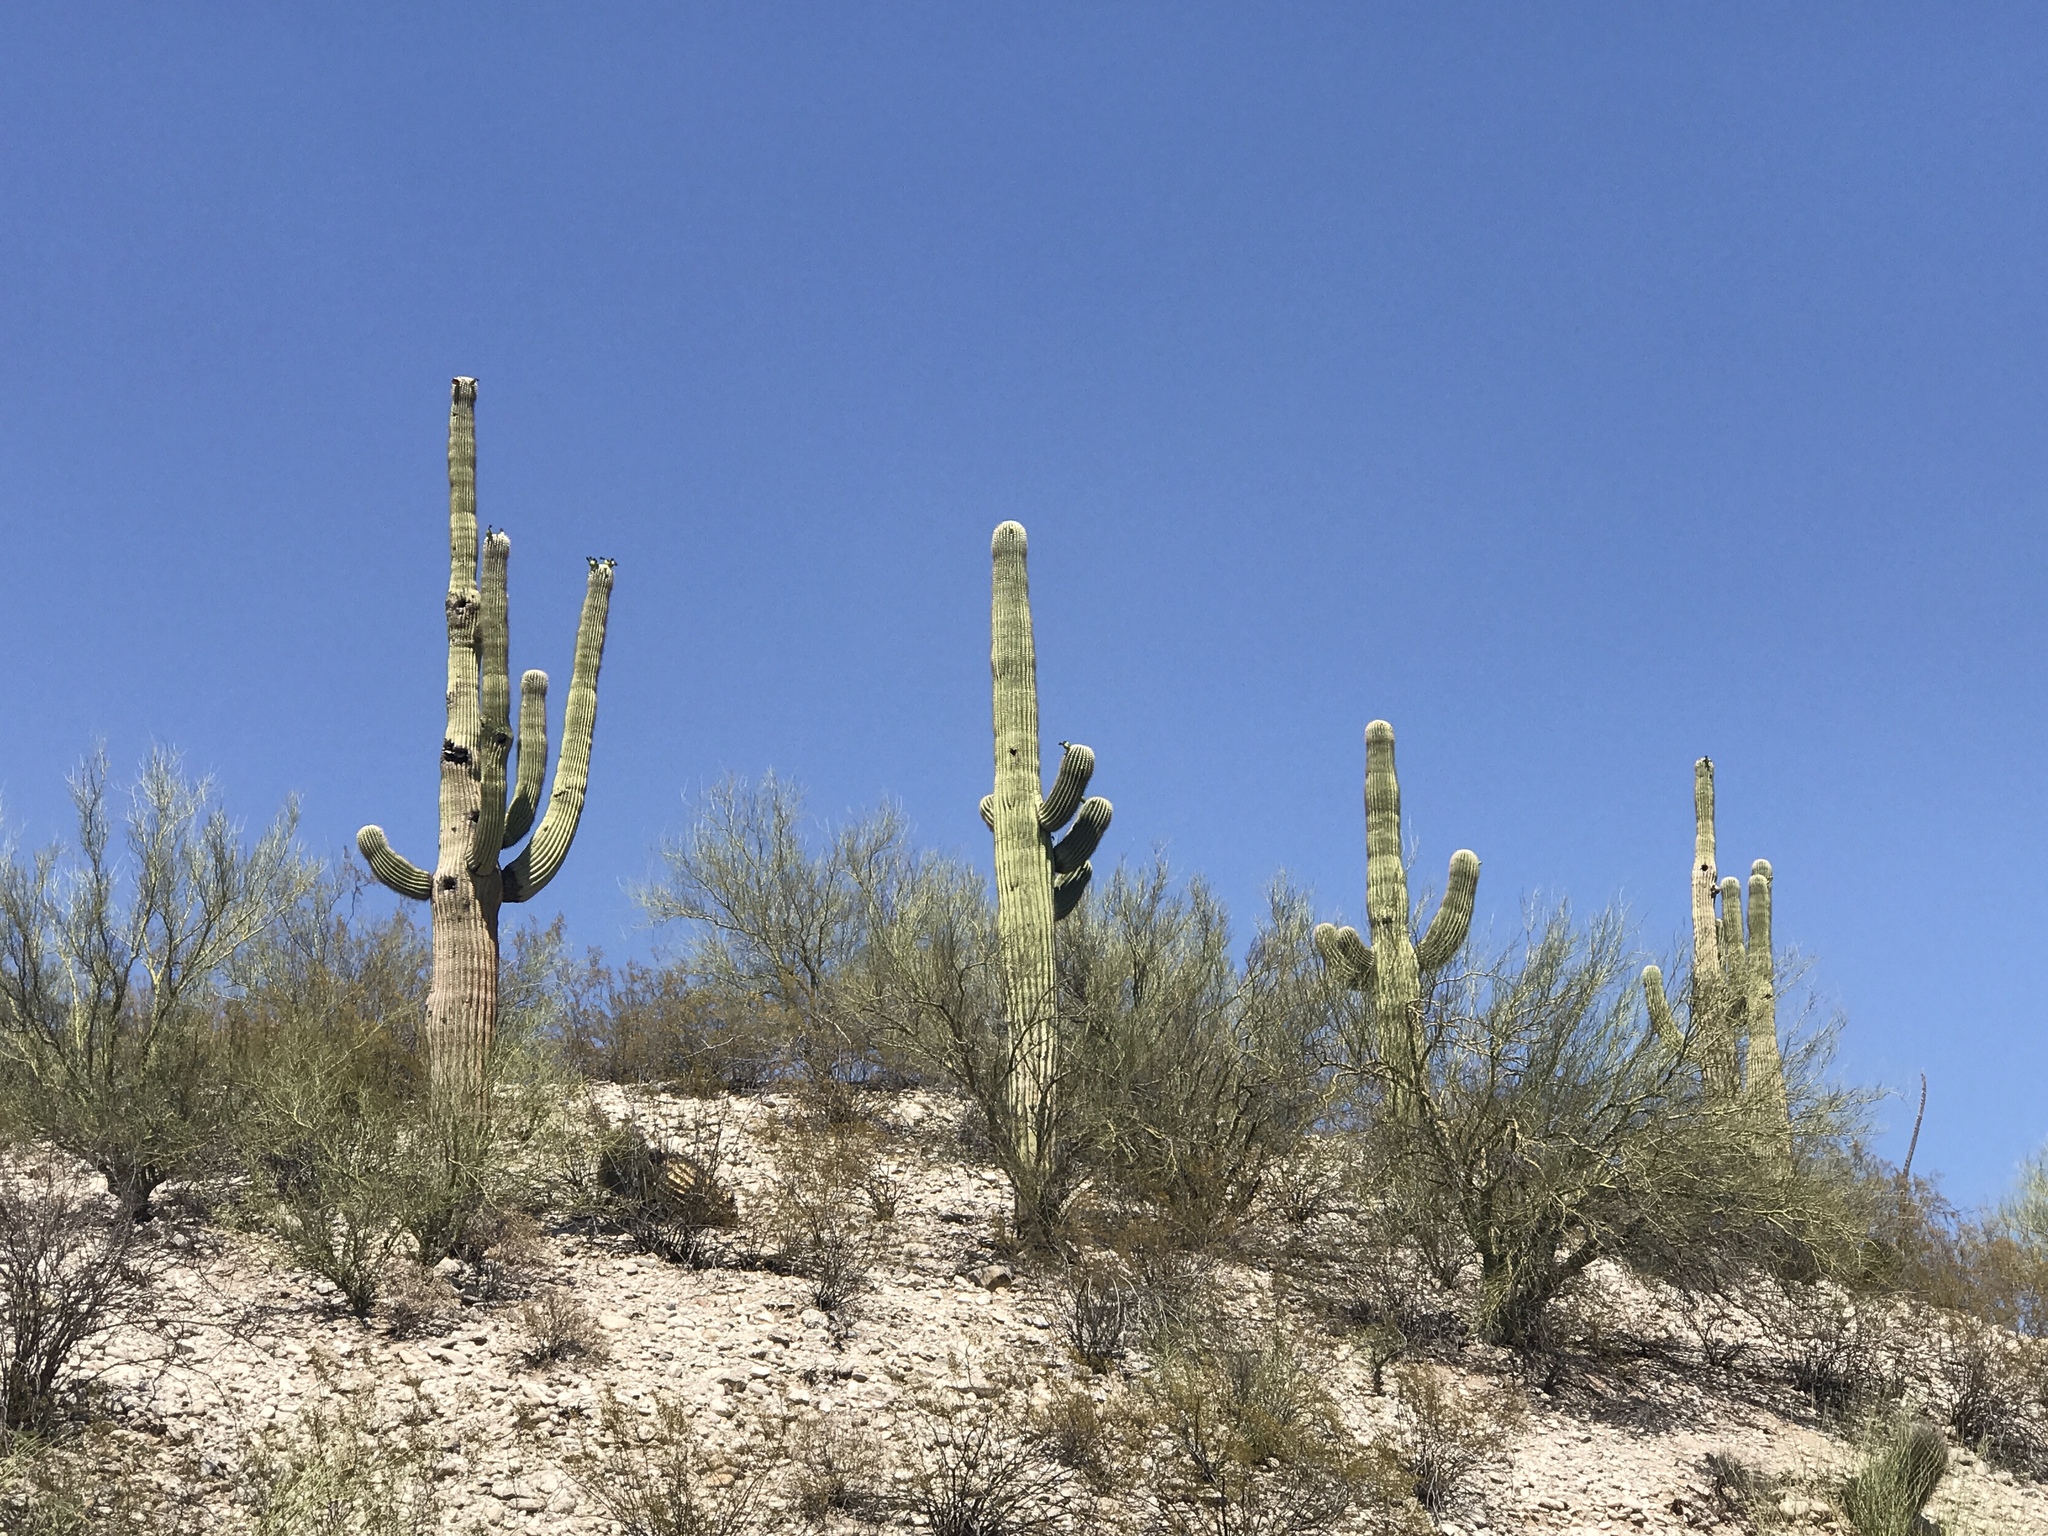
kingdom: Plantae
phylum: Tracheophyta
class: Magnoliopsida
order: Caryophyllales
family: Cactaceae
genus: Carnegiea
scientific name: Carnegiea gigantea
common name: Saguaro
